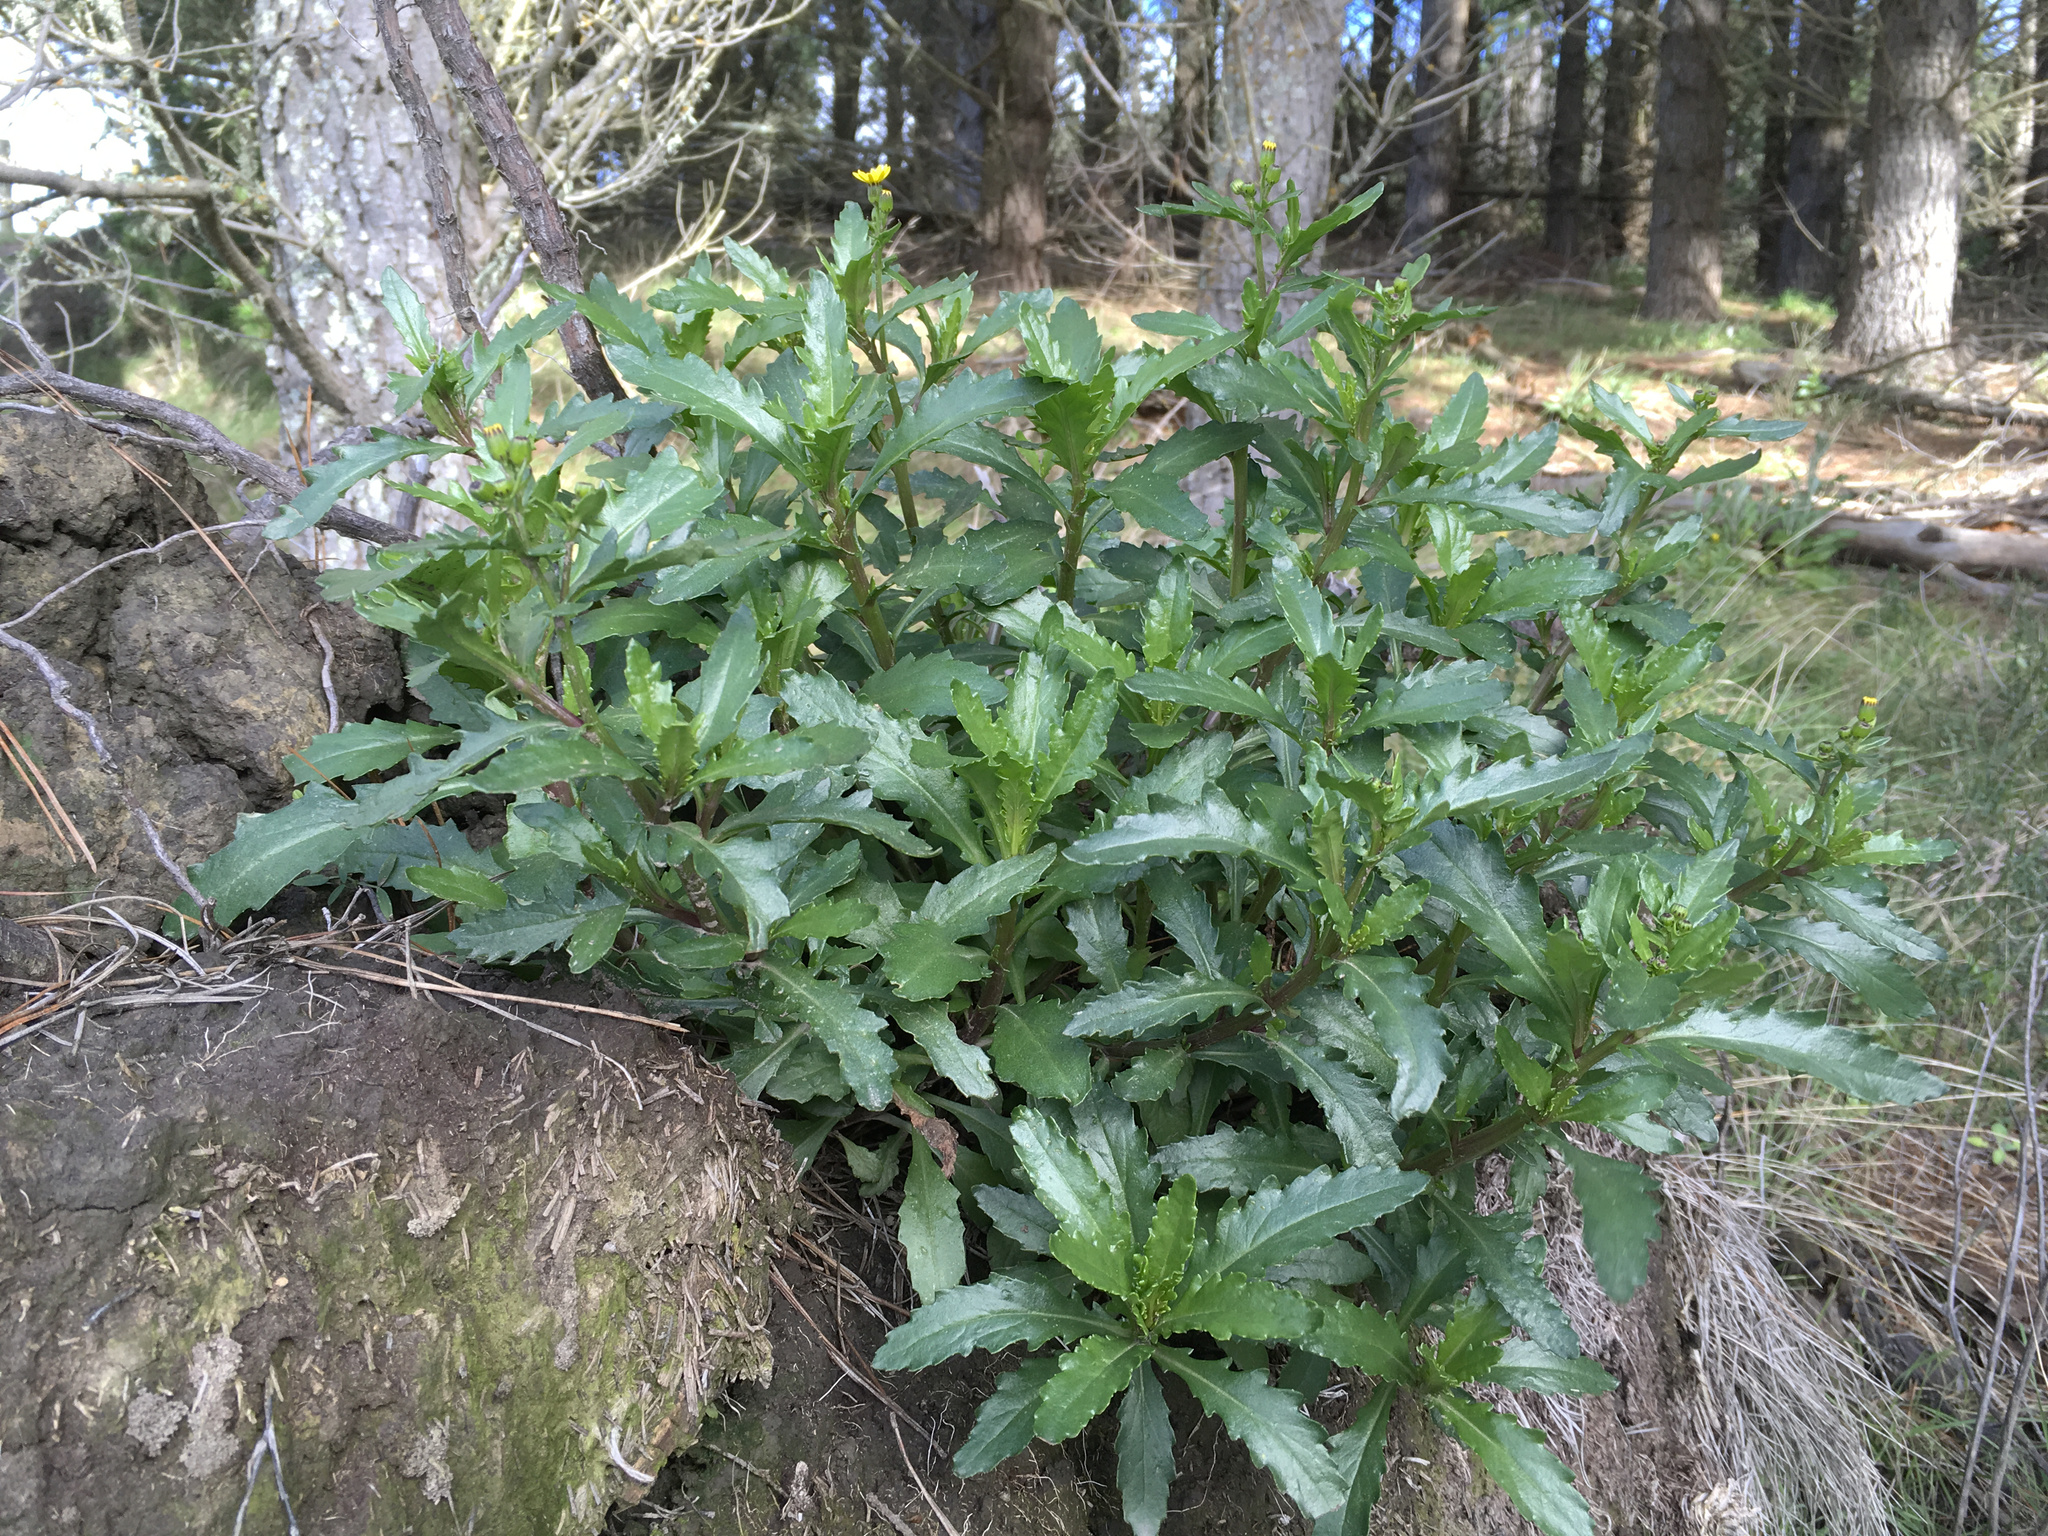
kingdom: Plantae
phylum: Tracheophyta
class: Magnoliopsida
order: Asterales
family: Asteraceae
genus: Senecio
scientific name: Senecio matatini
